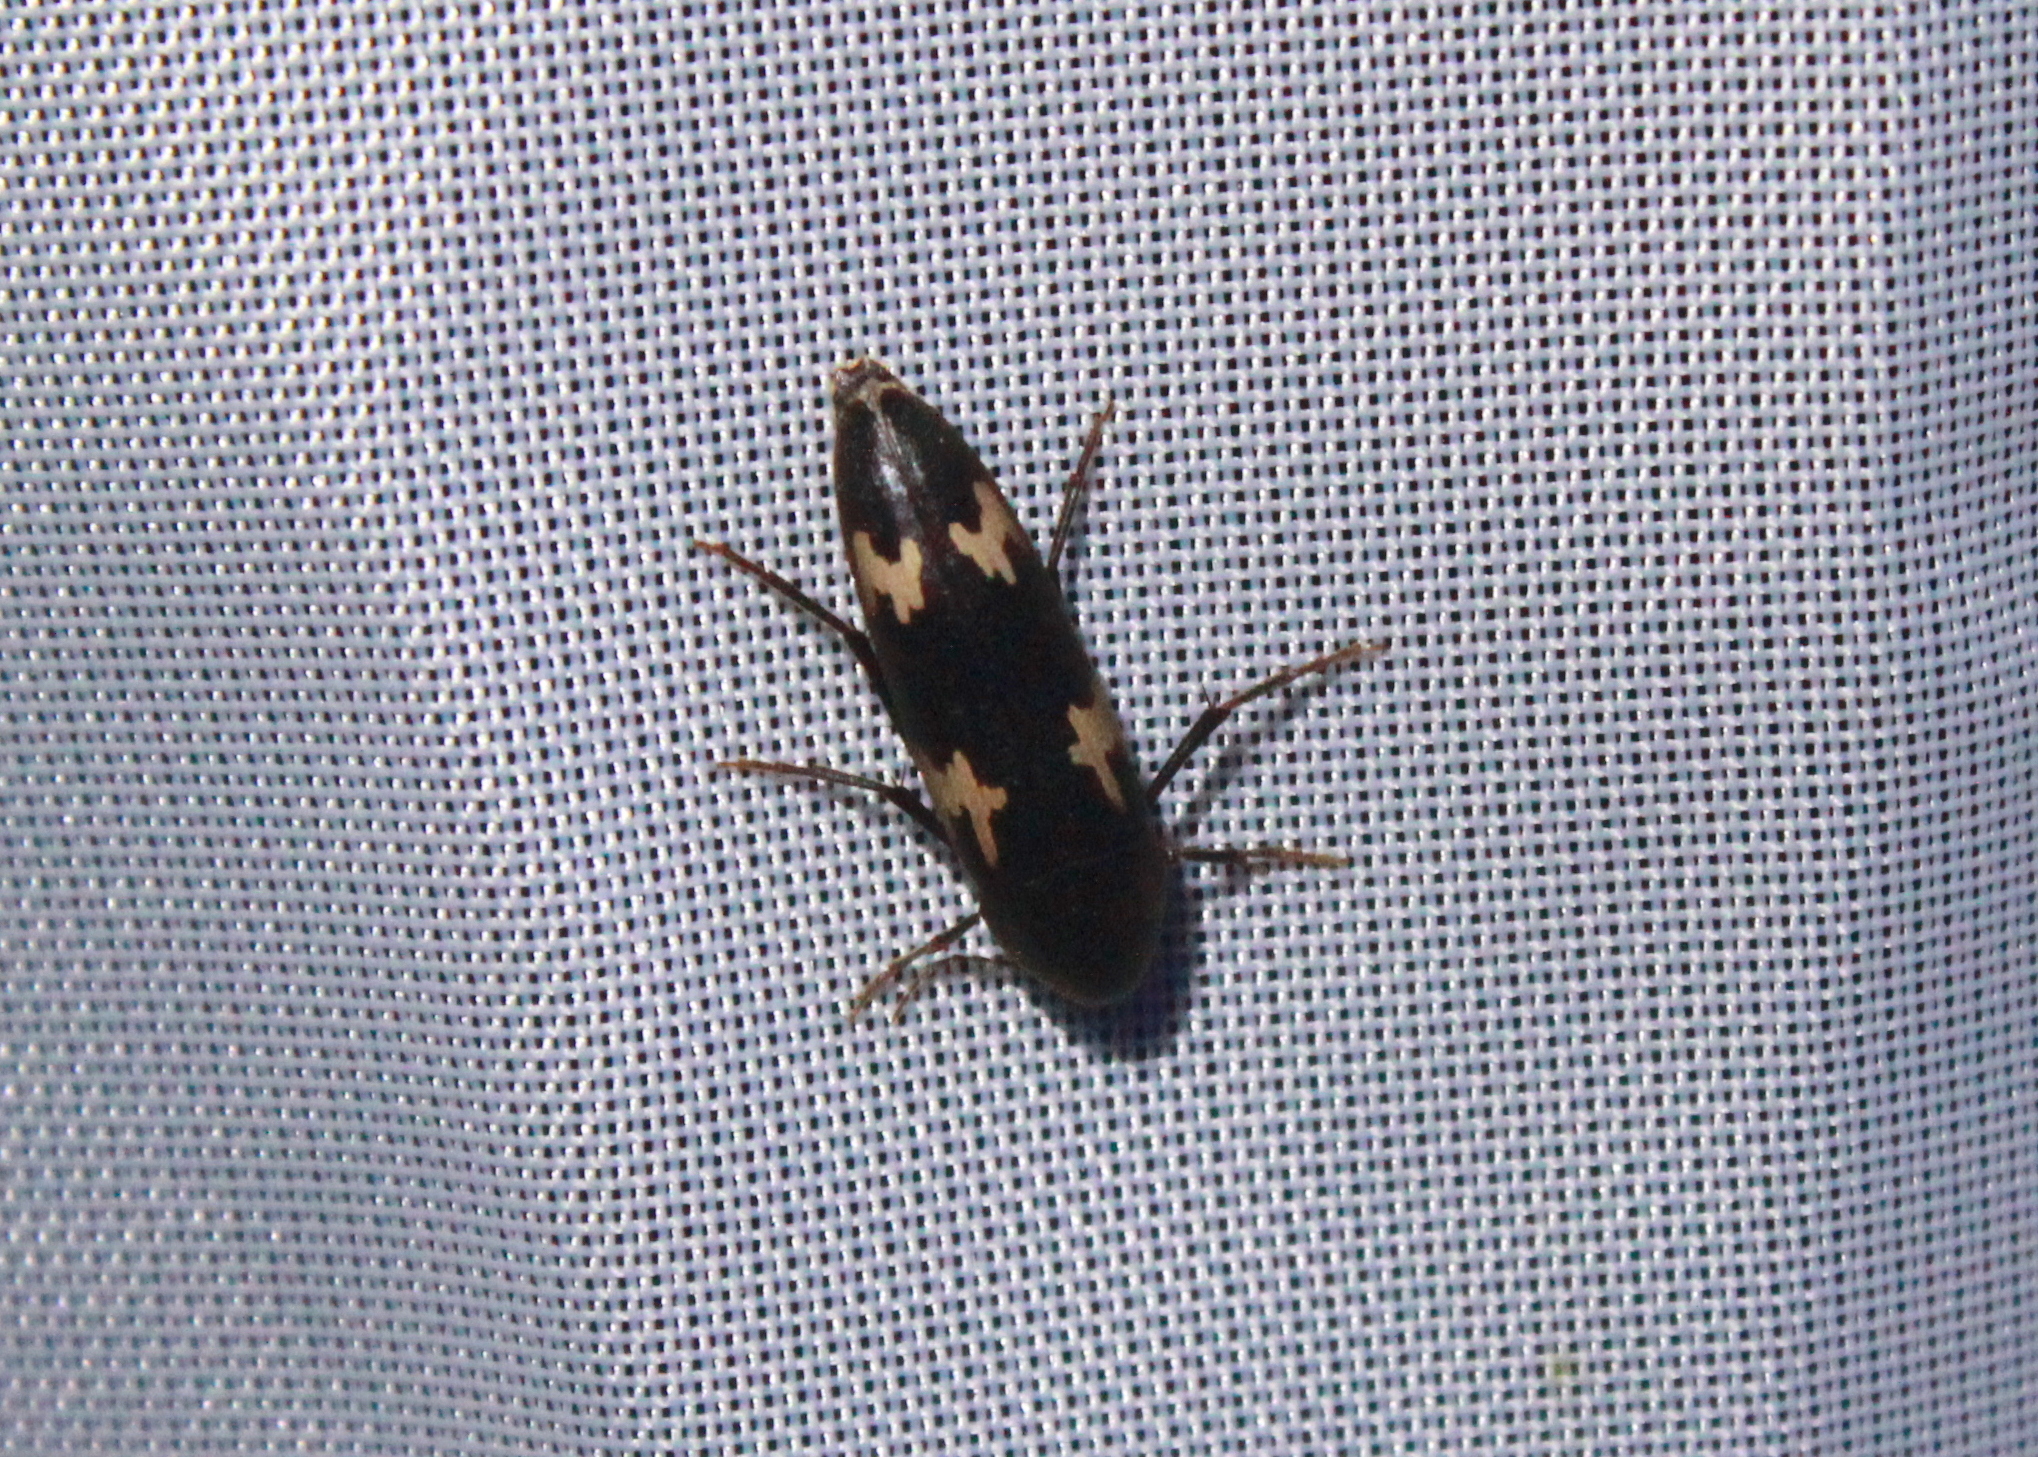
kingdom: Animalia
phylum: Arthropoda
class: Insecta
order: Coleoptera
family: Melandryidae
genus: Dircaea
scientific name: Dircaea liturata
